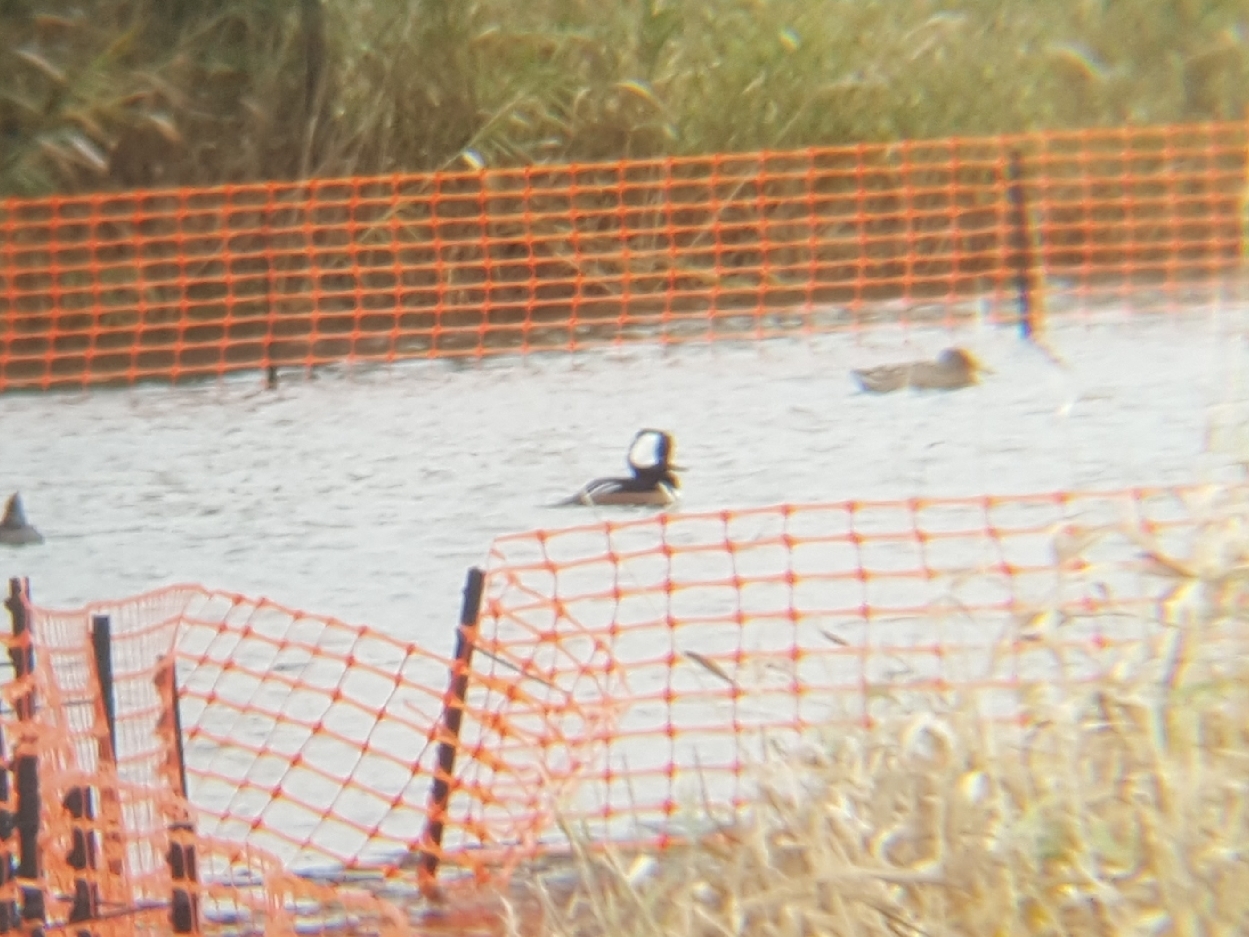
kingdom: Animalia
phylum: Chordata
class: Aves
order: Anseriformes
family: Anatidae
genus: Lophodytes
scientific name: Lophodytes cucullatus
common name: Hooded merganser
